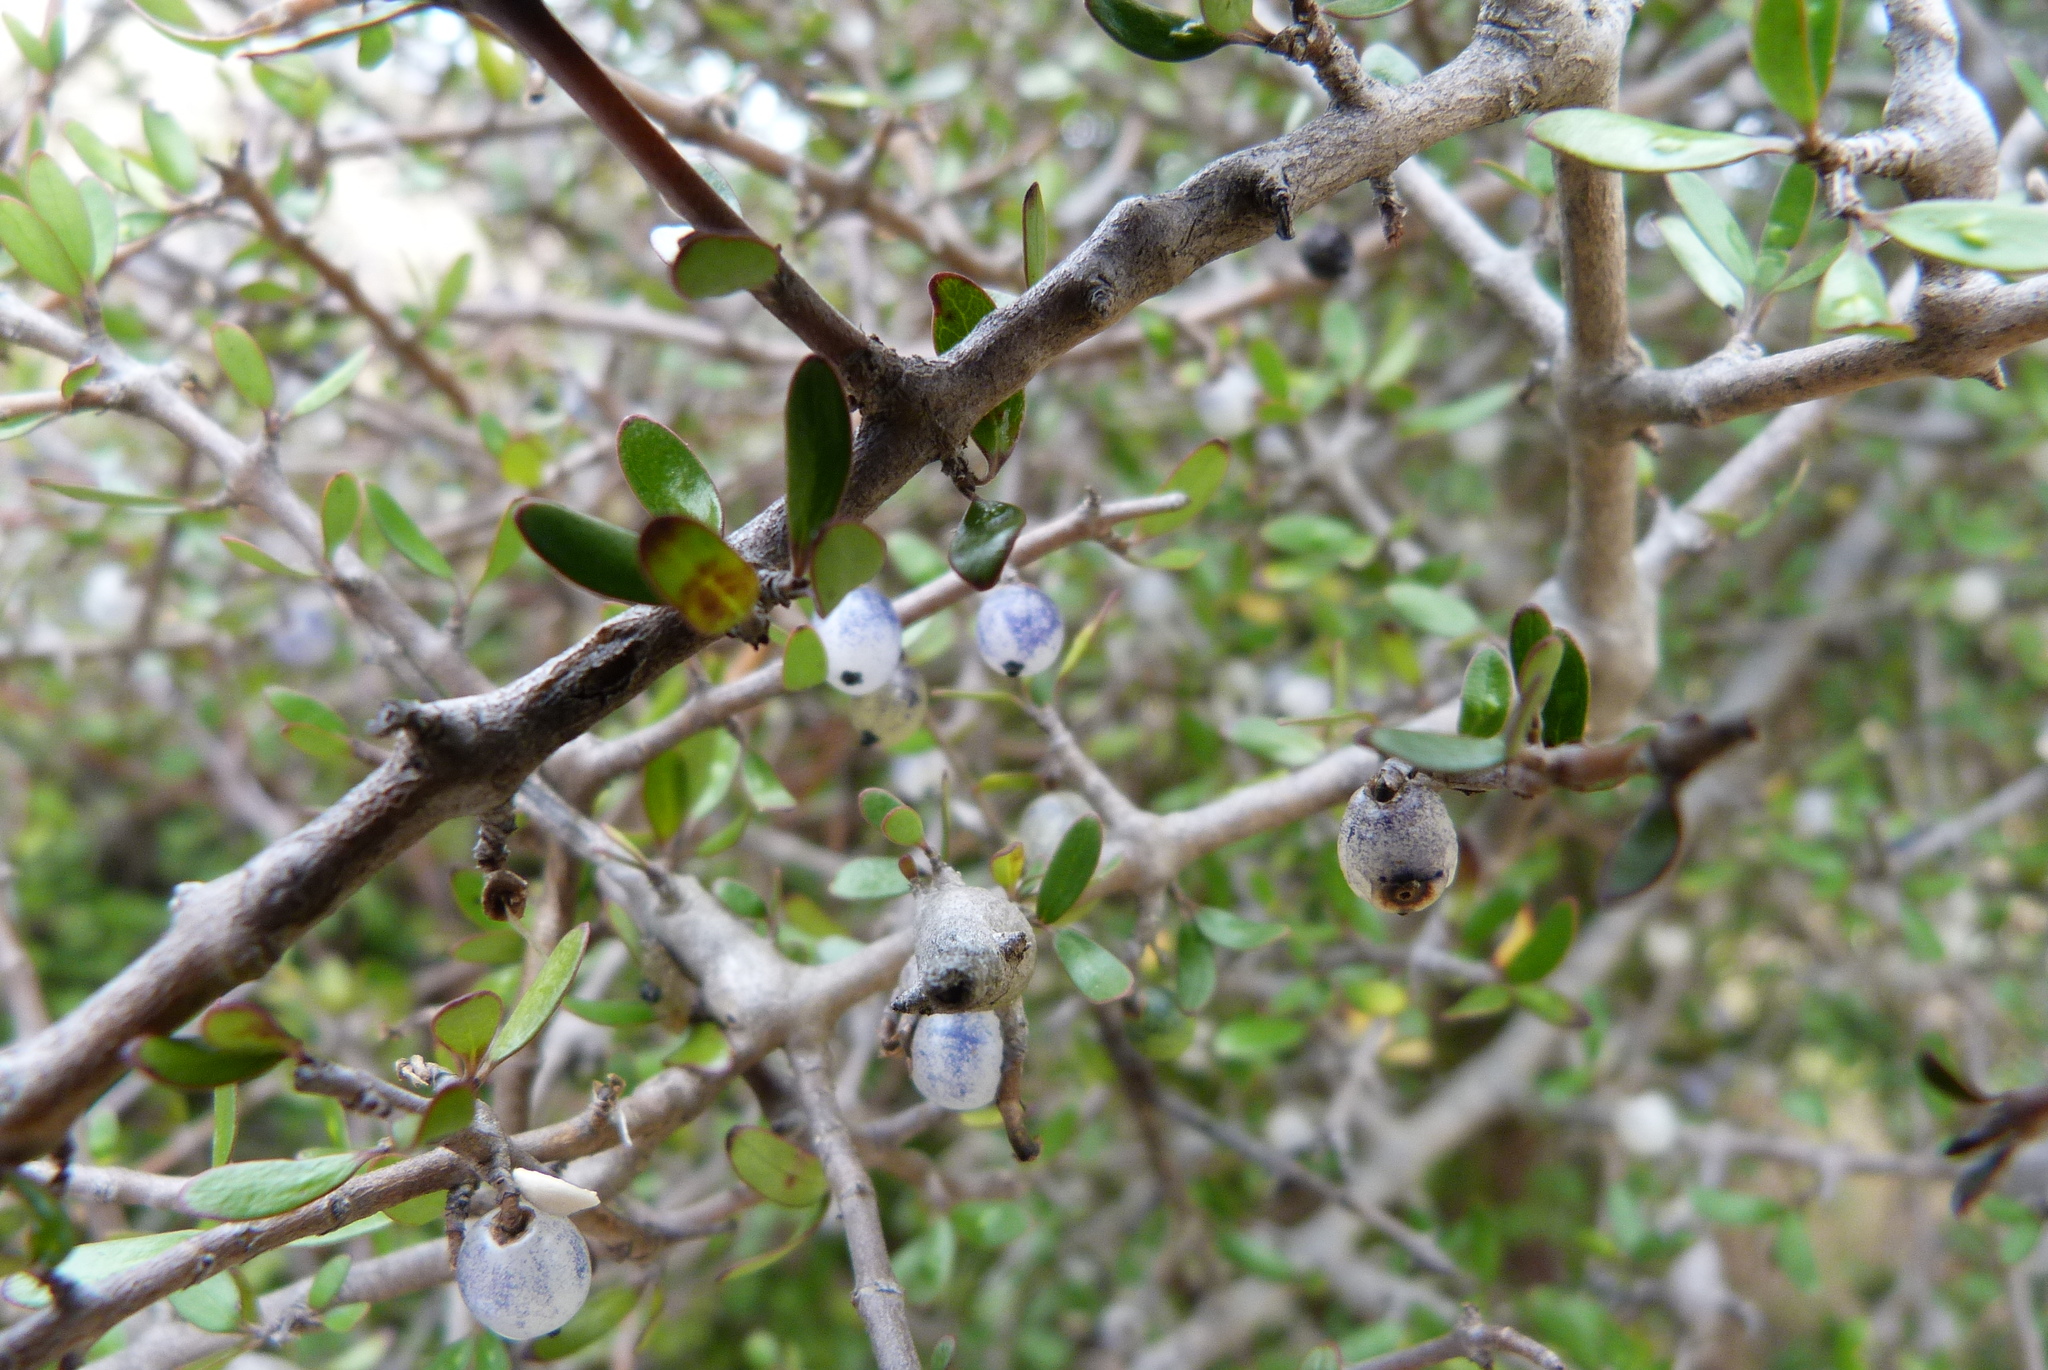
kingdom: Plantae
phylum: Tracheophyta
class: Magnoliopsida
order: Gentianales
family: Rubiaceae
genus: Coprosma
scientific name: Coprosma propinqua
